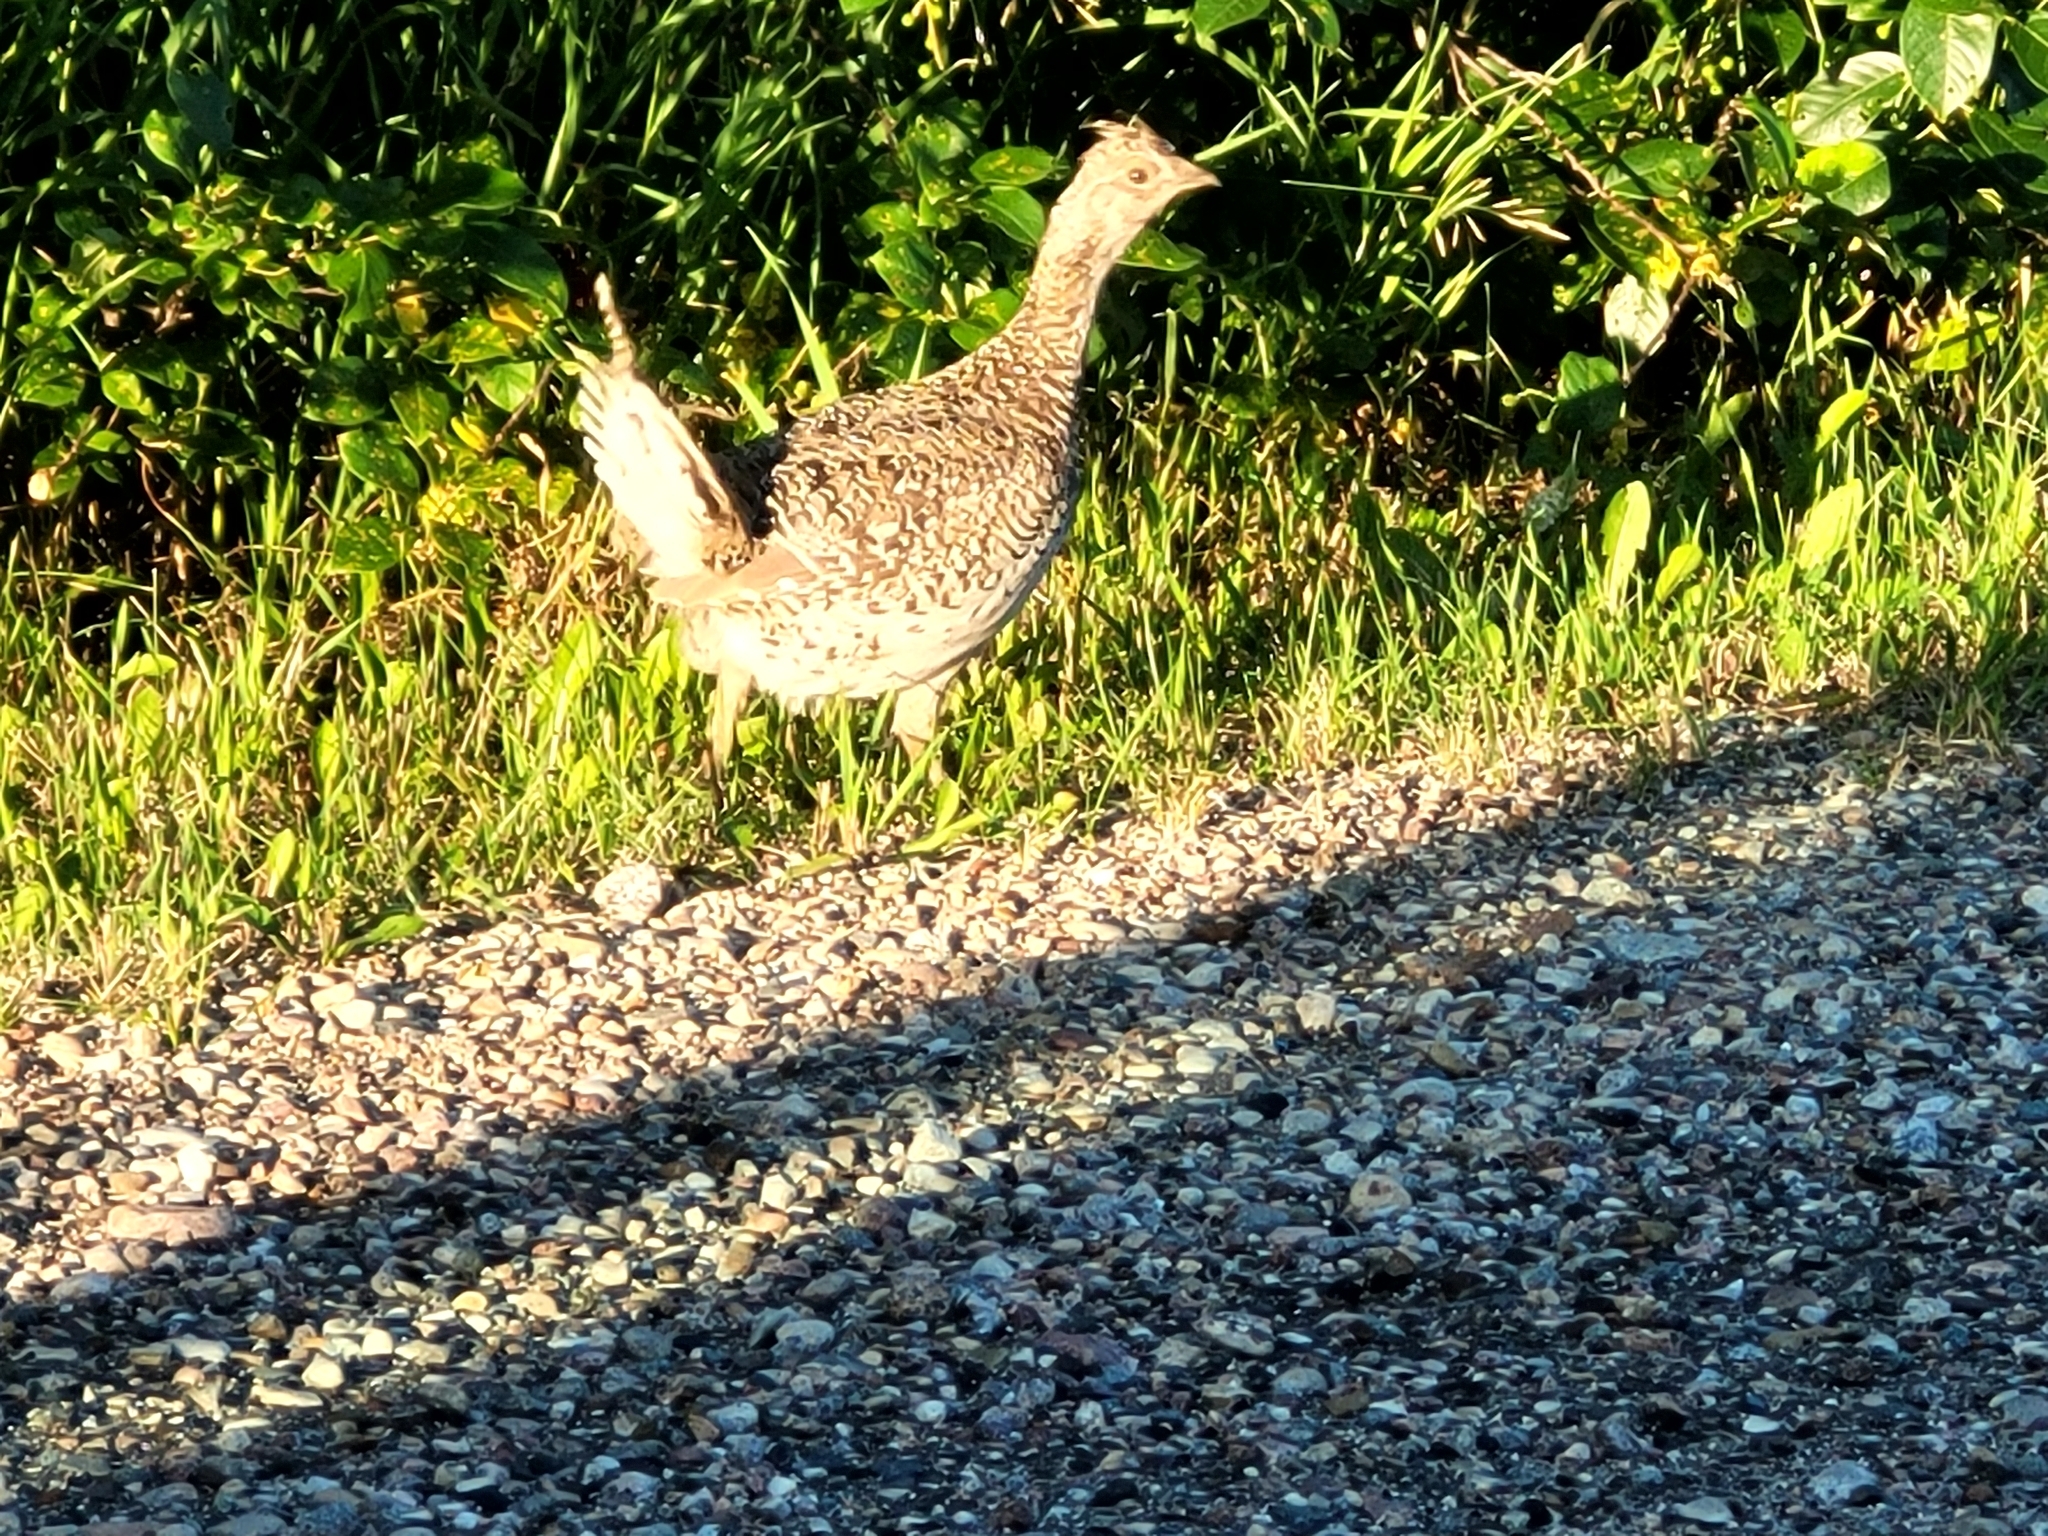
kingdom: Animalia
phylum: Chordata
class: Aves
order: Galliformes
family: Phasianidae
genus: Tympanuchus
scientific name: Tympanuchus phasianellus
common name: Sharp-tailed grouse
